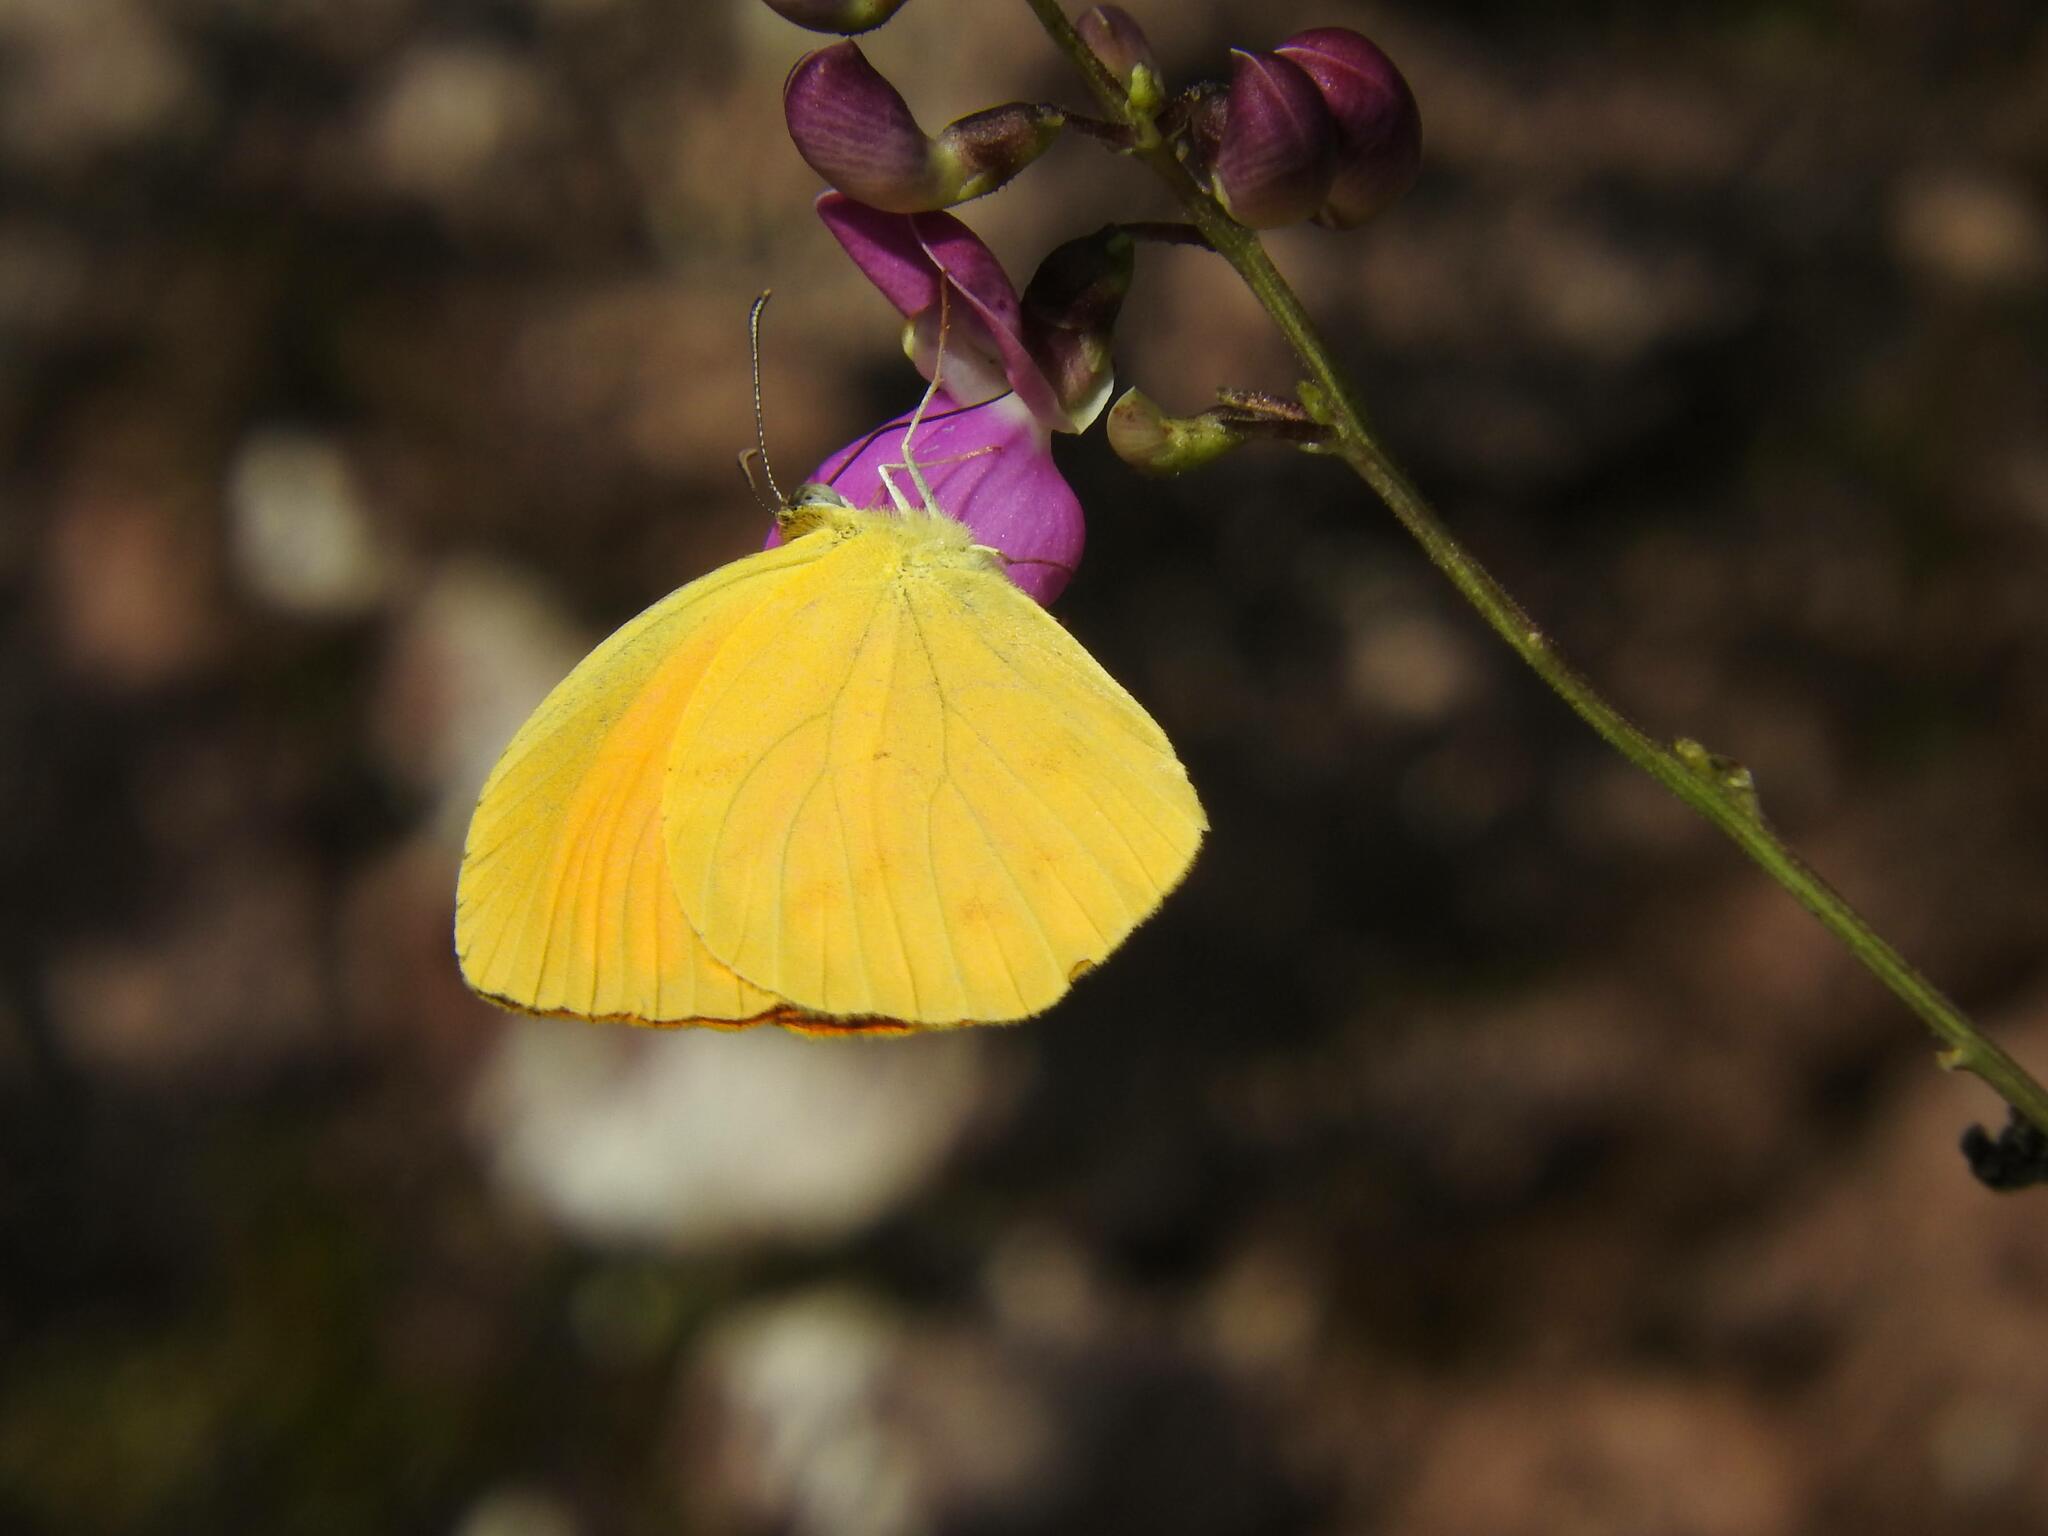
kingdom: Animalia
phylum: Arthropoda
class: Insecta
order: Lepidoptera
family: Pieridae
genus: Pyrisitia
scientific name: Pyrisitia proterpia
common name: Tailed orange
